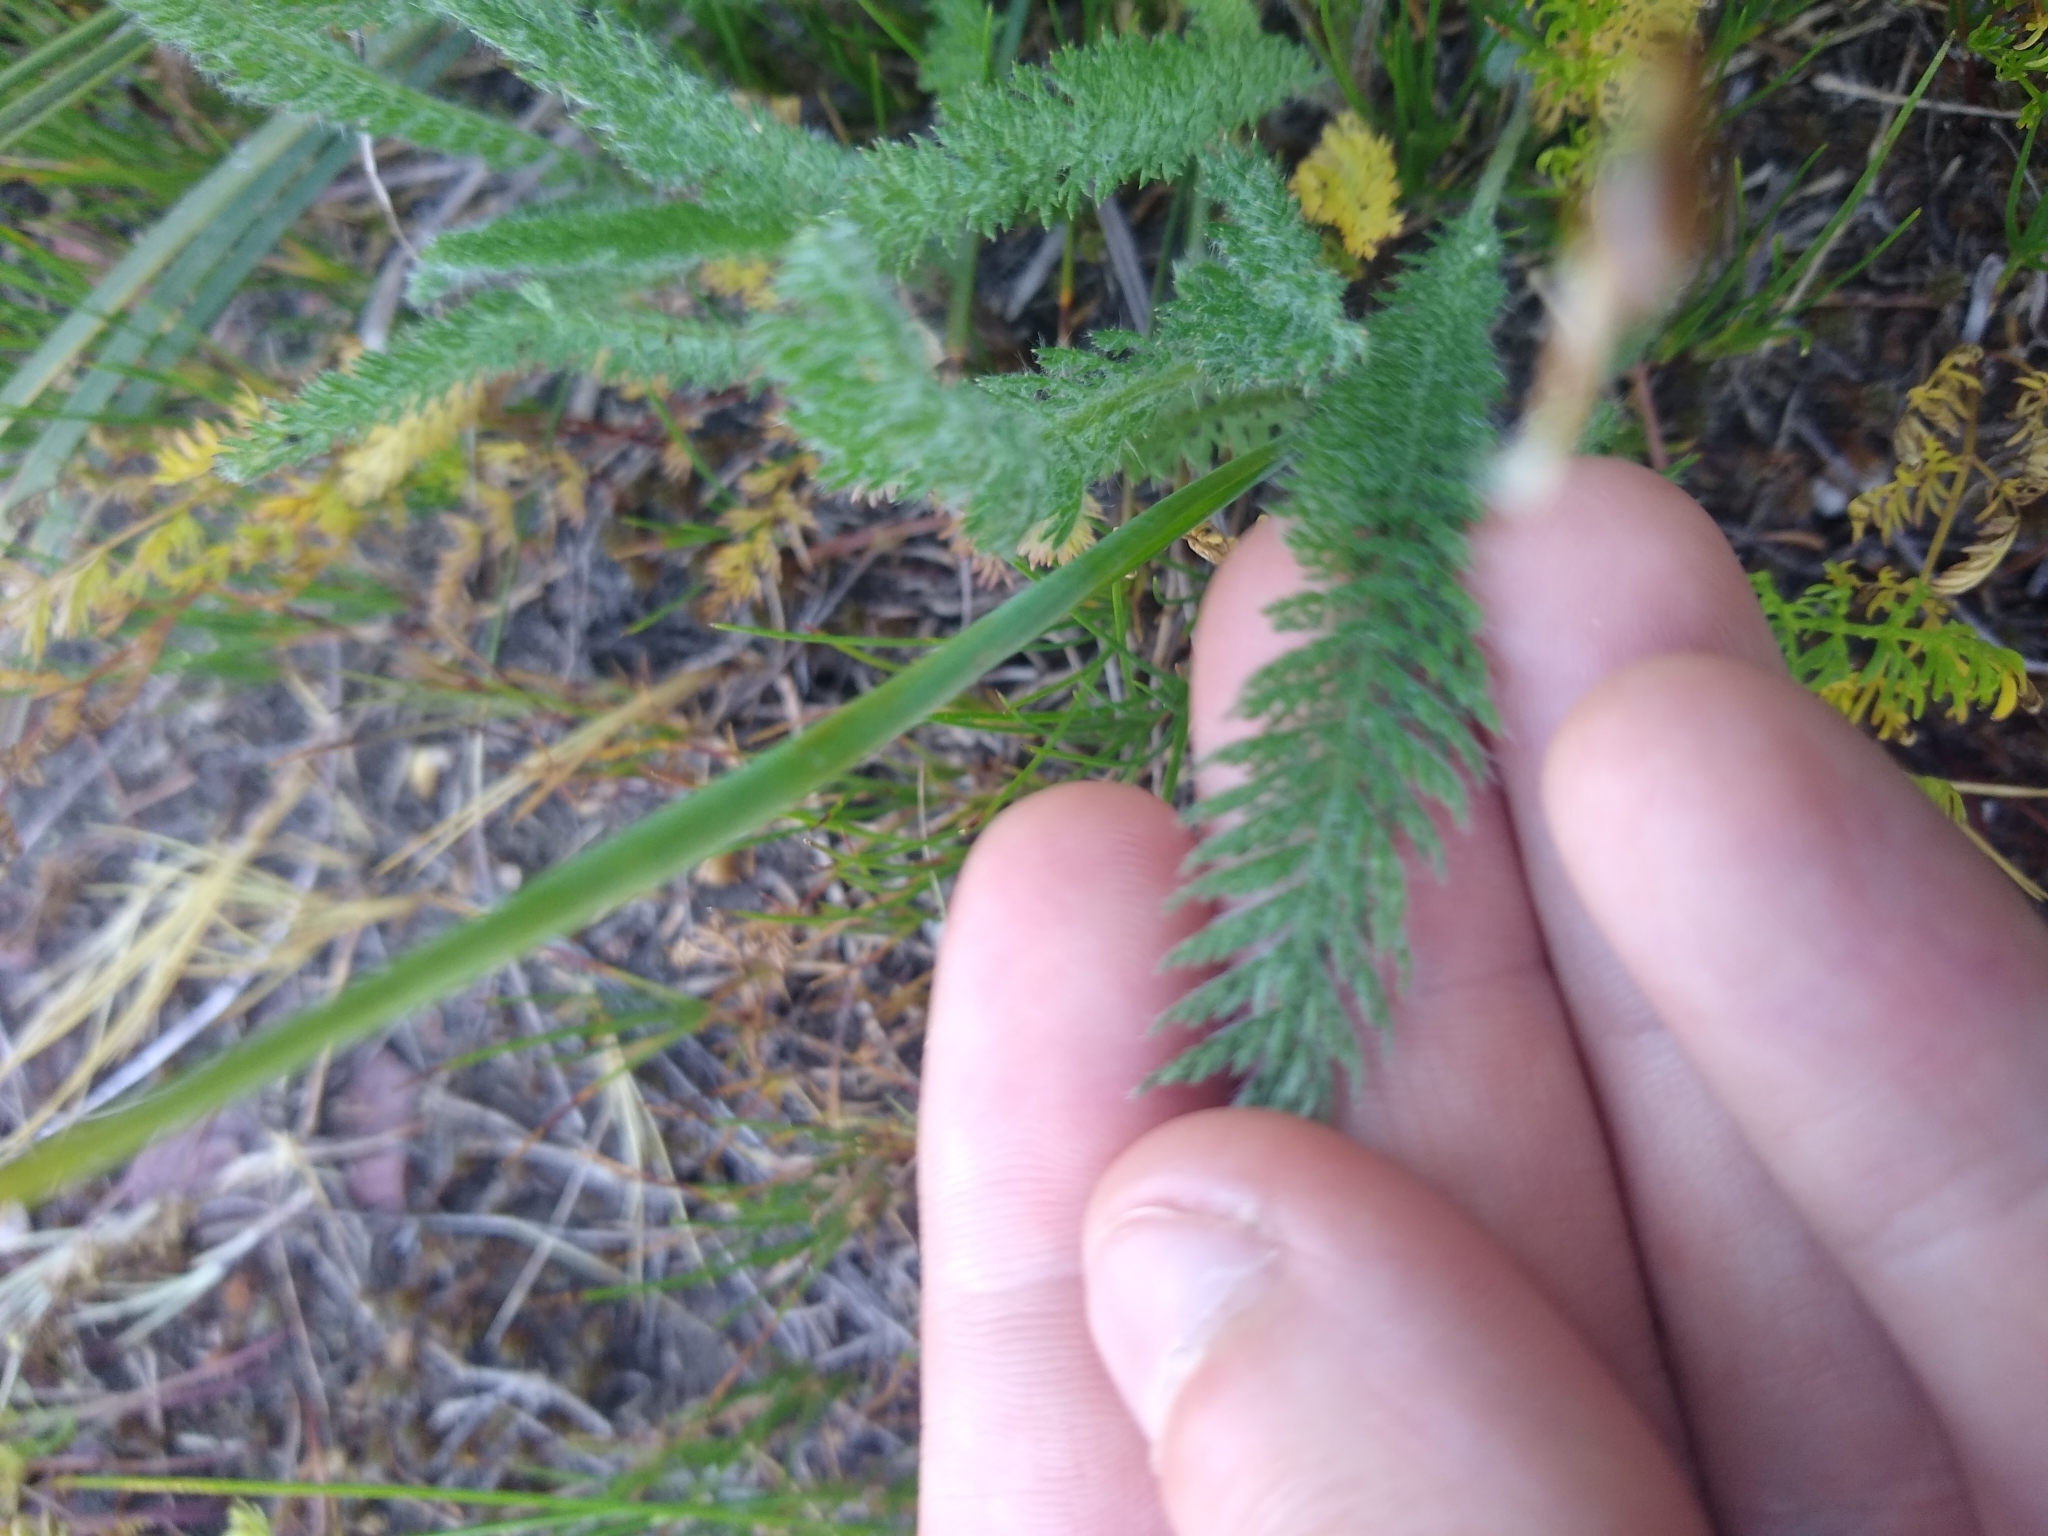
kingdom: Plantae
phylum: Tracheophyta
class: Magnoliopsida
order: Asterales
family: Asteraceae
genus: Achillea
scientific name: Achillea millefolium
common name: Yarrow
